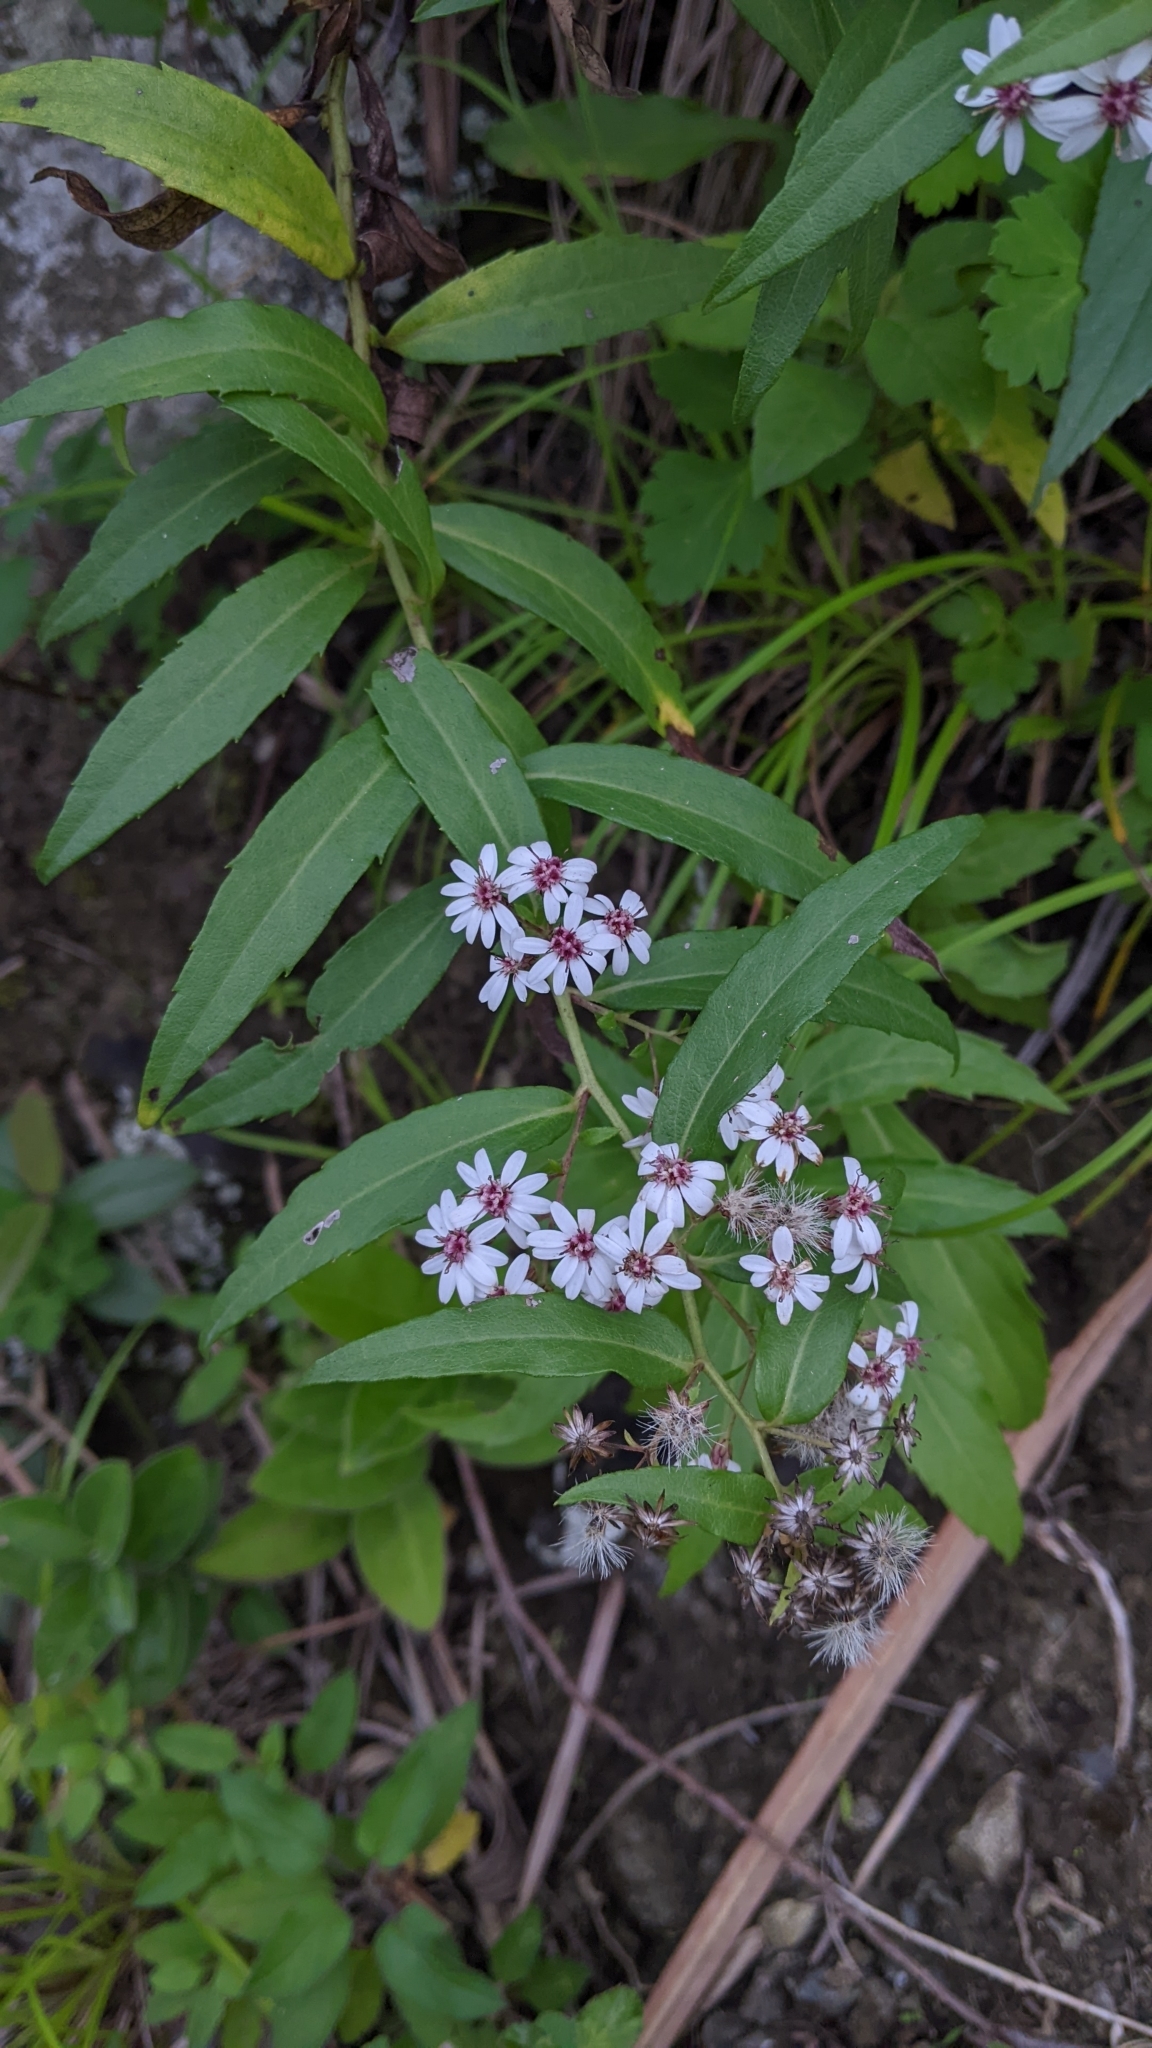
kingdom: Plantae
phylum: Tracheophyta
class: Magnoliopsida
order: Asterales
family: Asteraceae
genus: Aster
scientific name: Aster taiwanensis
